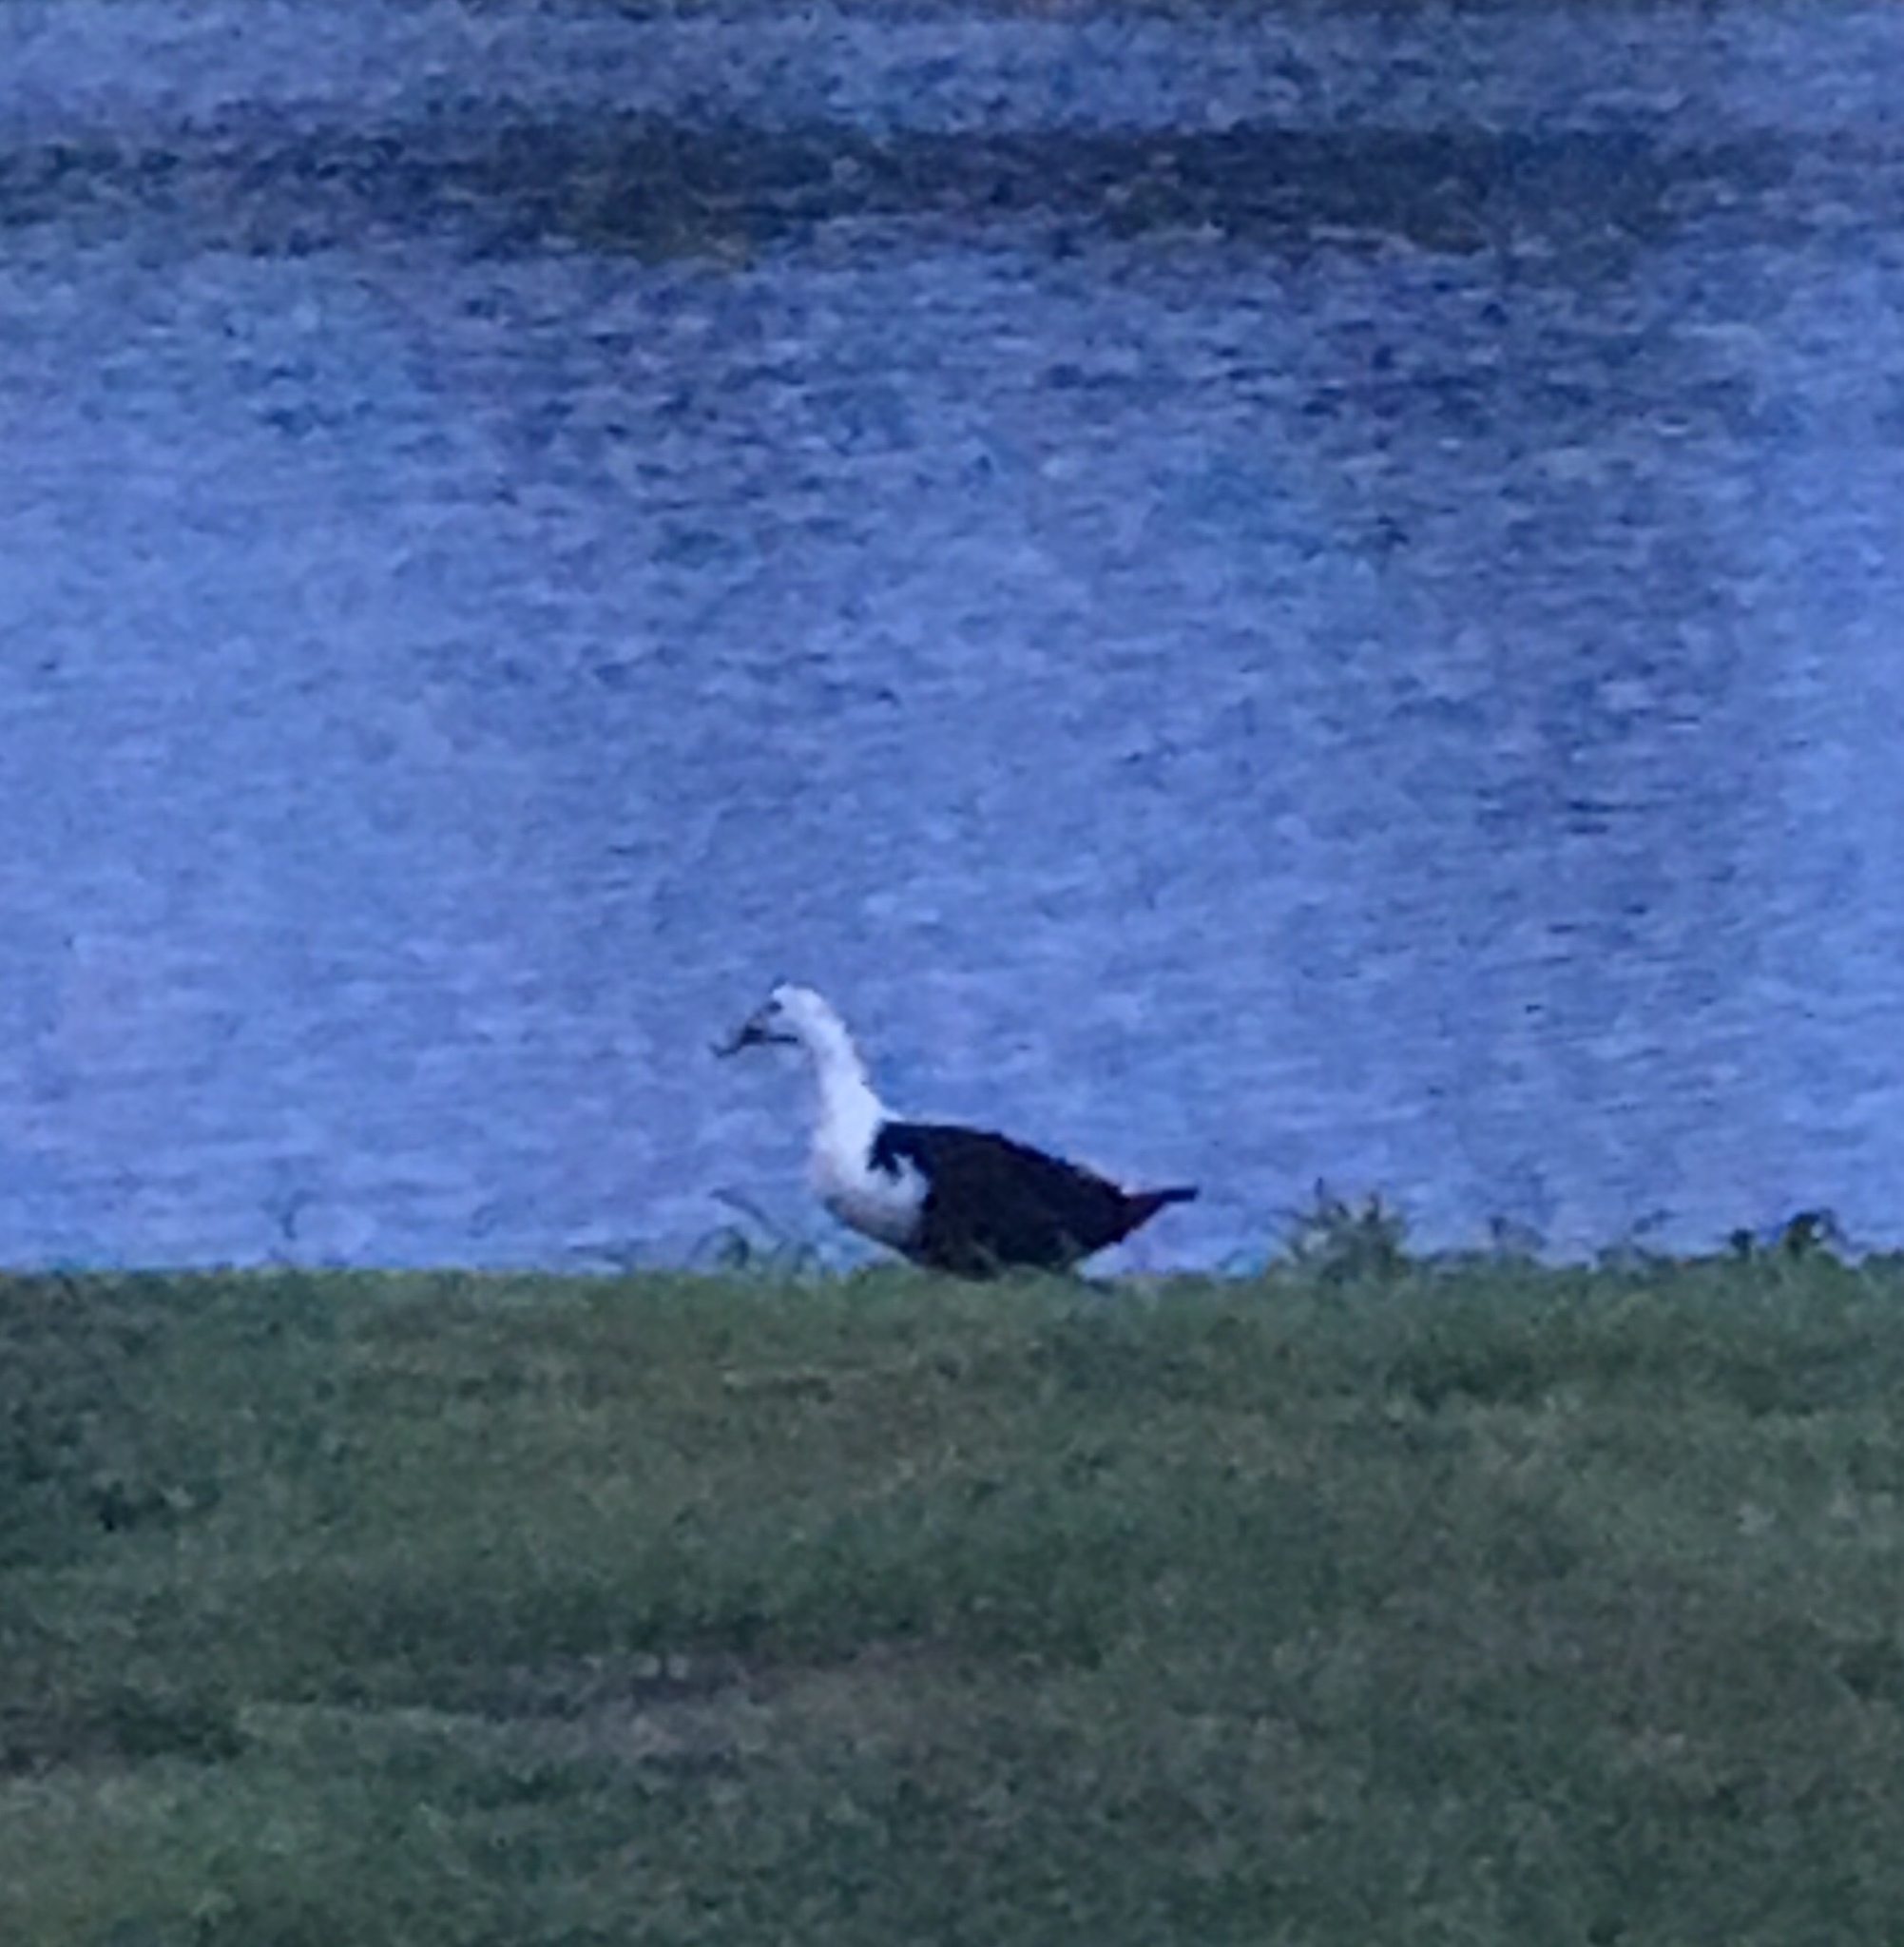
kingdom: Animalia
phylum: Chordata
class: Aves
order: Anseriformes
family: Anatidae
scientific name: Anatidae
